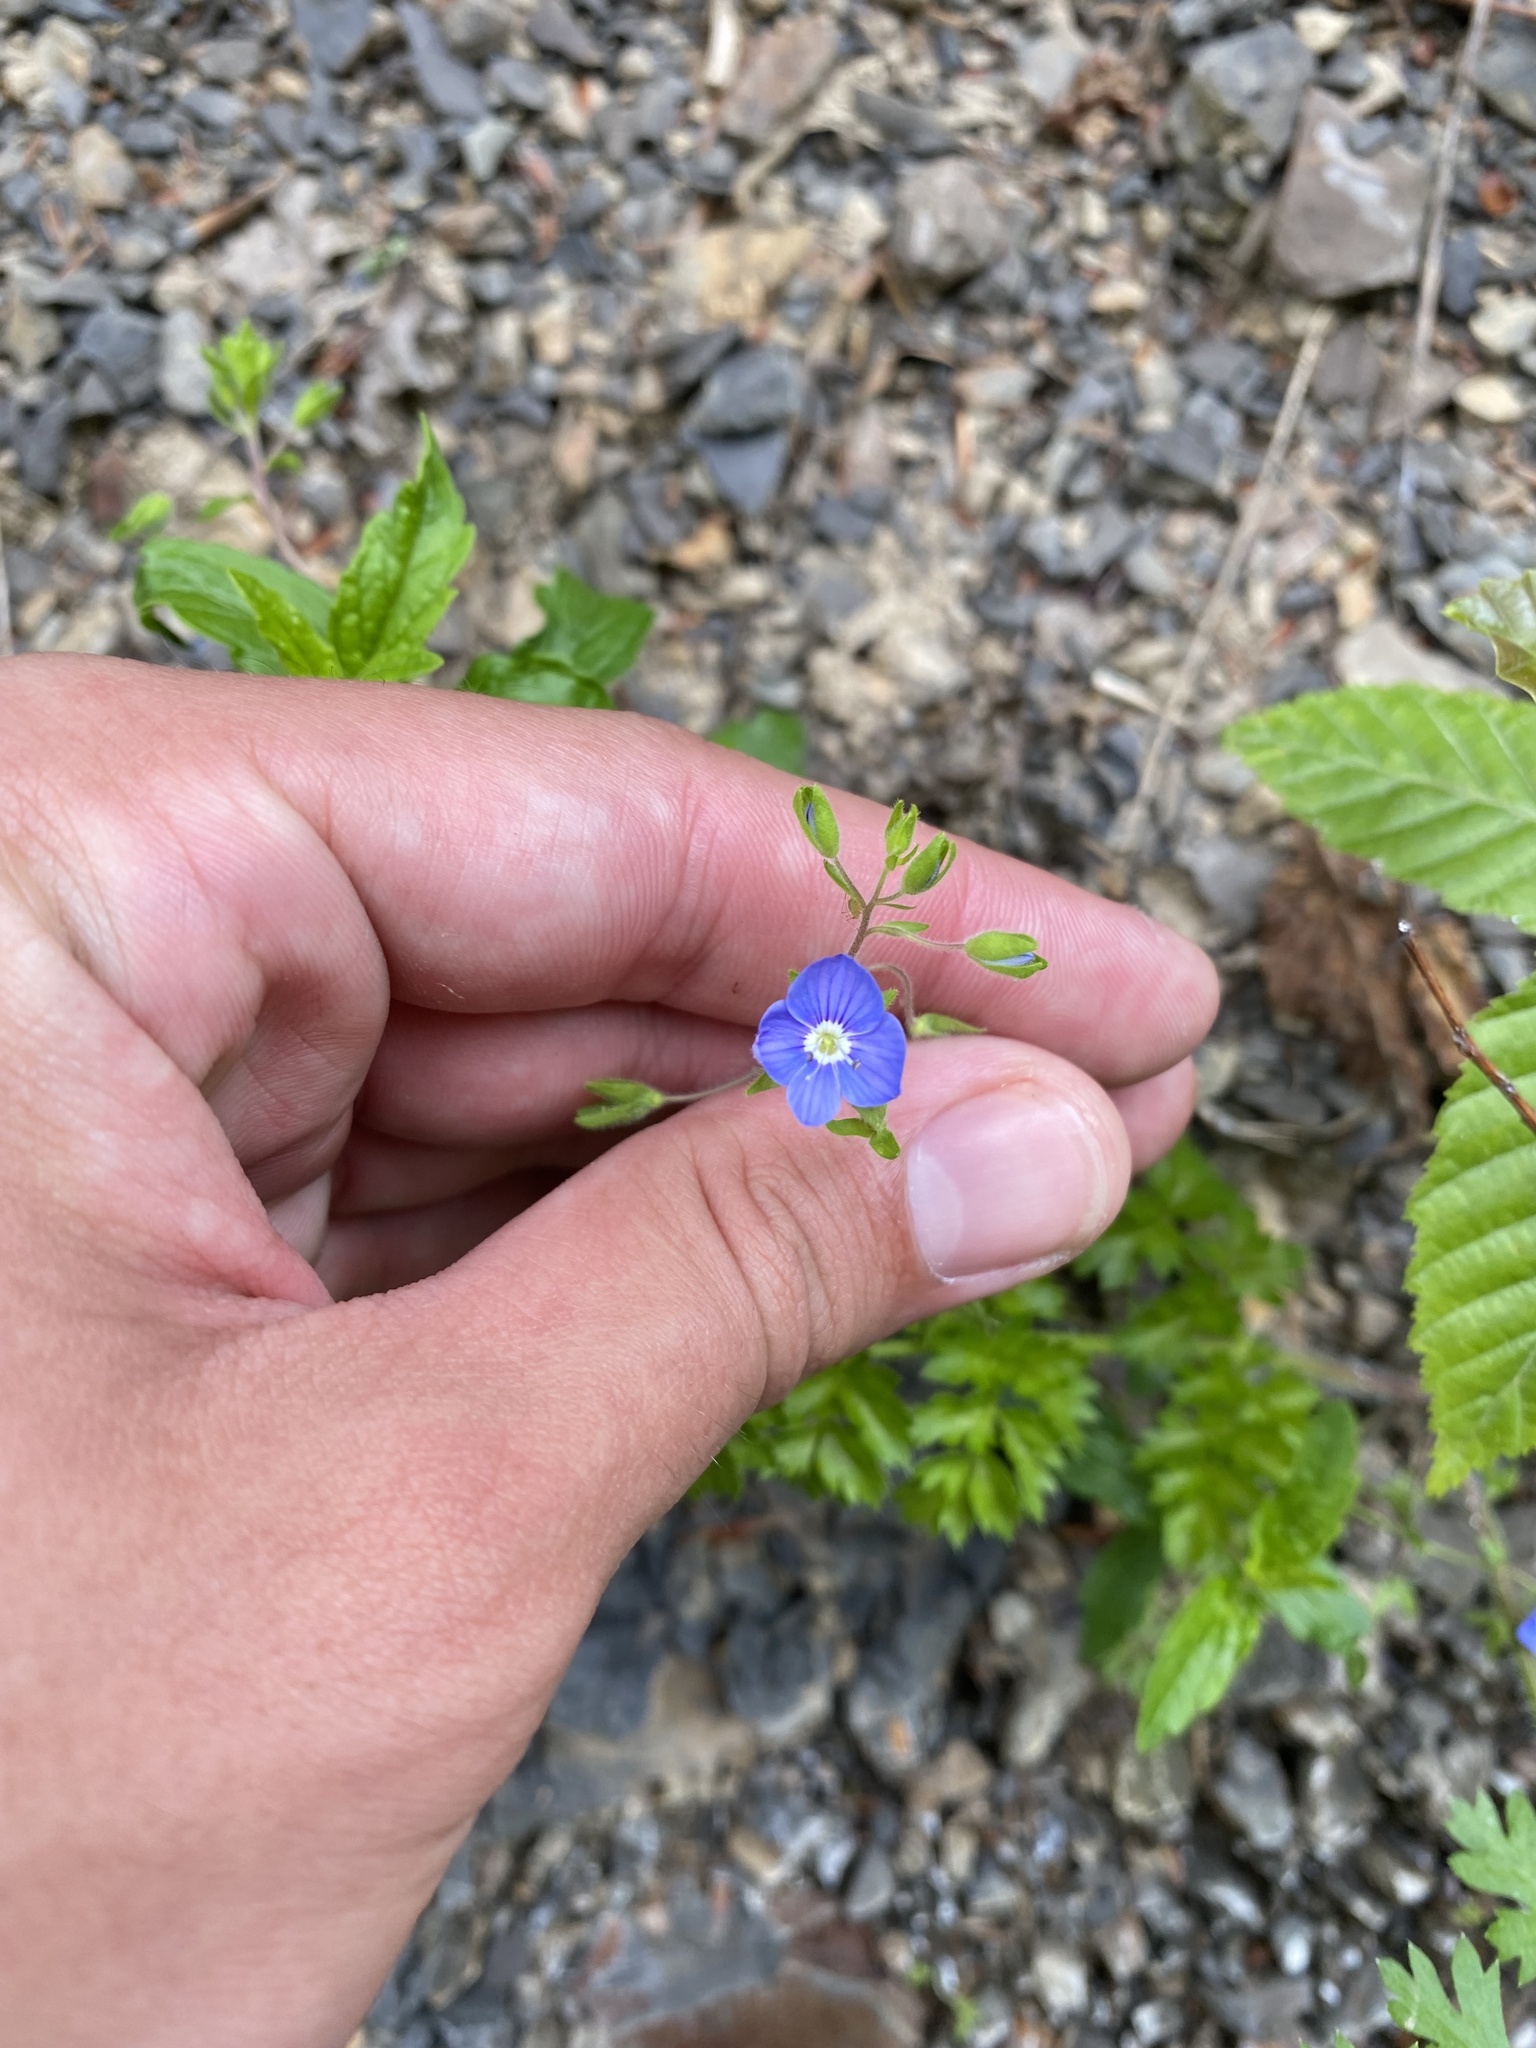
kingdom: Plantae
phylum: Tracheophyta
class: Magnoliopsida
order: Lamiales
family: Plantaginaceae
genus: Veronica
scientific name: Veronica
